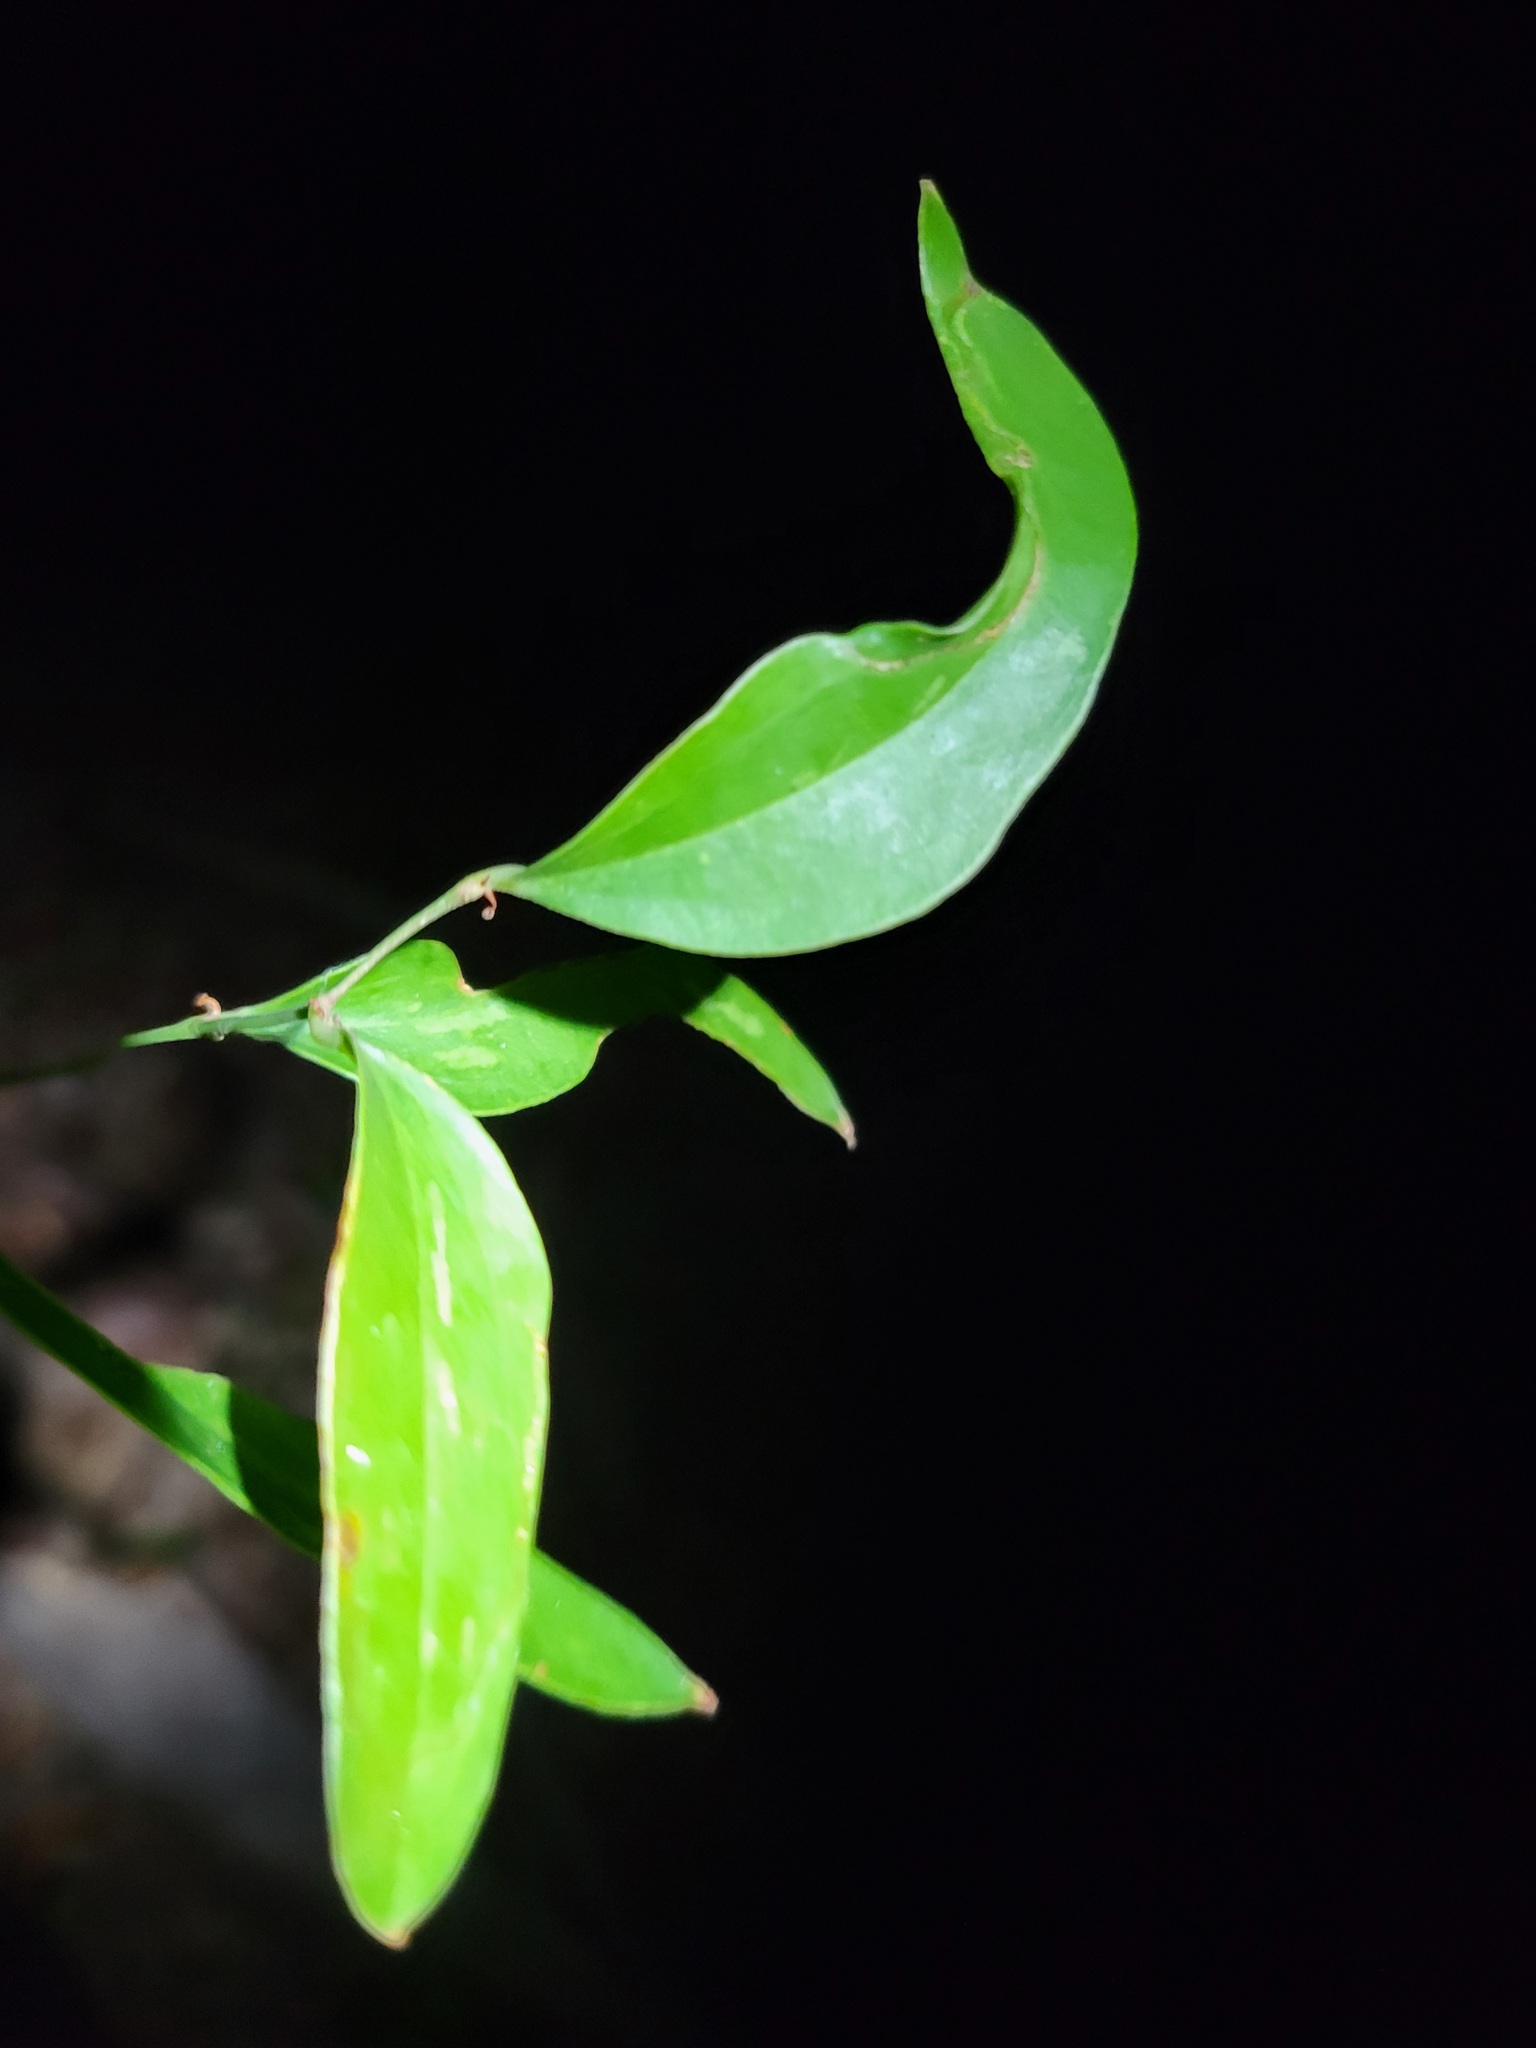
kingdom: Plantae
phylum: Tracheophyta
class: Liliopsida
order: Liliales
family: Smilacaceae
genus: Smilax
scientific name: Smilax auriculata
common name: Wild bamboo
